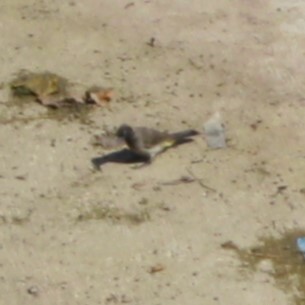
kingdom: Animalia
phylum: Chordata
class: Aves
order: Passeriformes
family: Pycnonotidae
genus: Pycnonotus
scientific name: Pycnonotus xanthopygos
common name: White-spectacled bulbul
